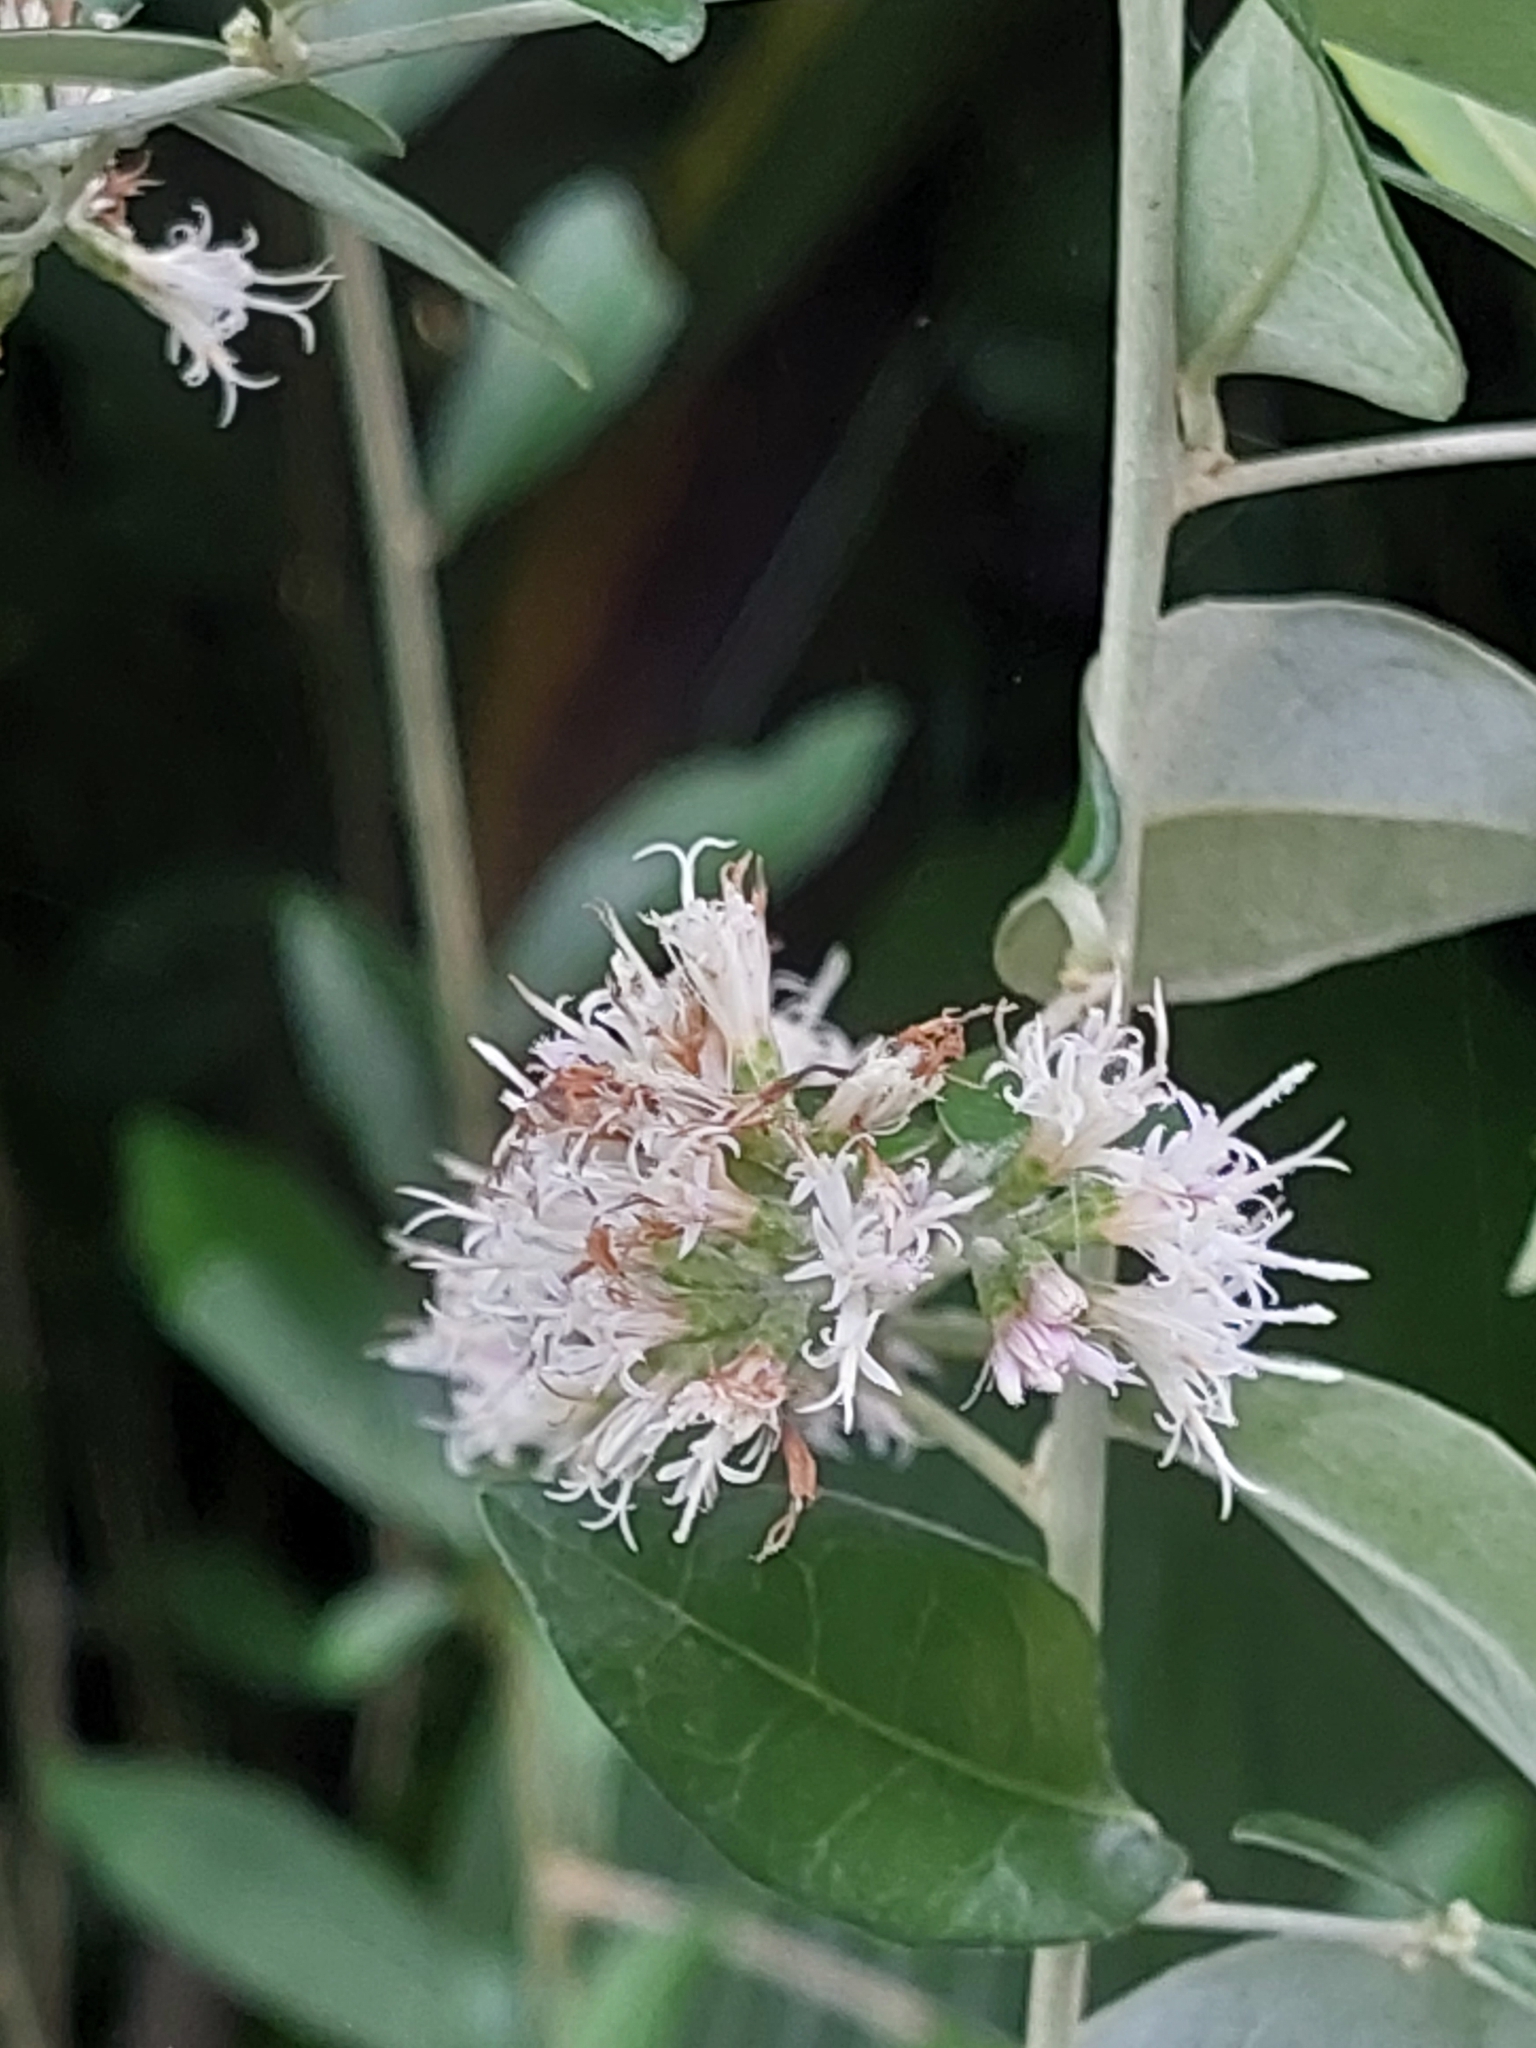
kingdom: Plantae
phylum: Tracheophyta
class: Magnoliopsida
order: Asterales
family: Asteraceae
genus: Tarlmounia
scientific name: Tarlmounia elliptica
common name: Kheua sa lot
